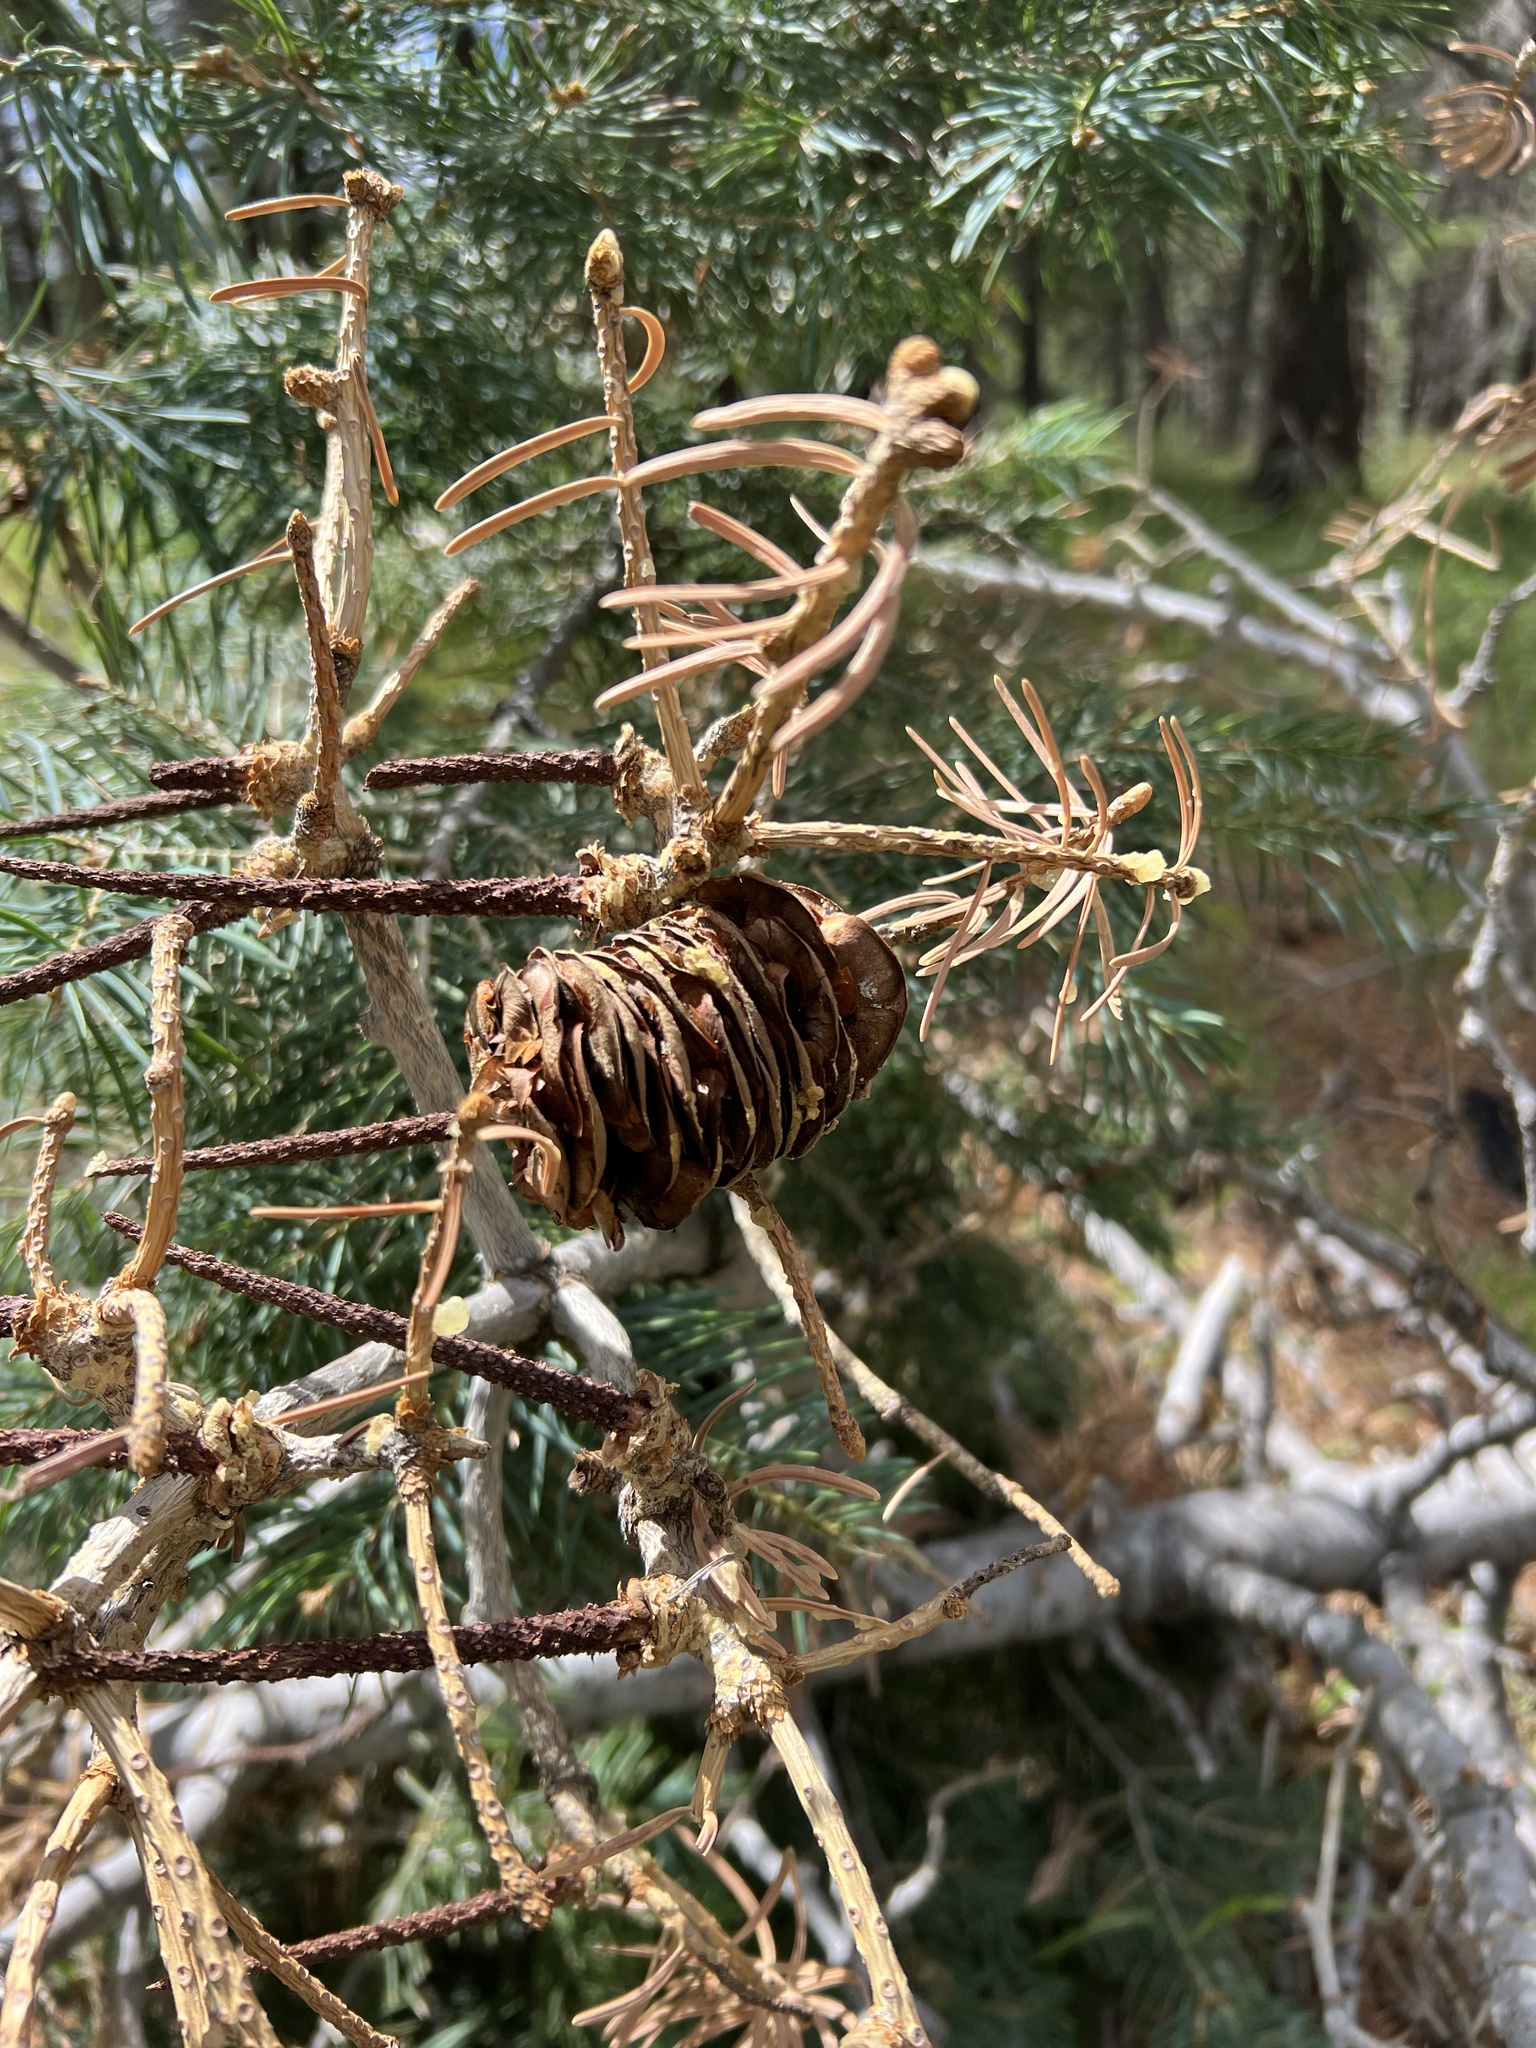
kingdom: Plantae
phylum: Tracheophyta
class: Pinopsida
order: Pinales
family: Pinaceae
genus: Abies
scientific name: Abies concolor
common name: Colorado fir
